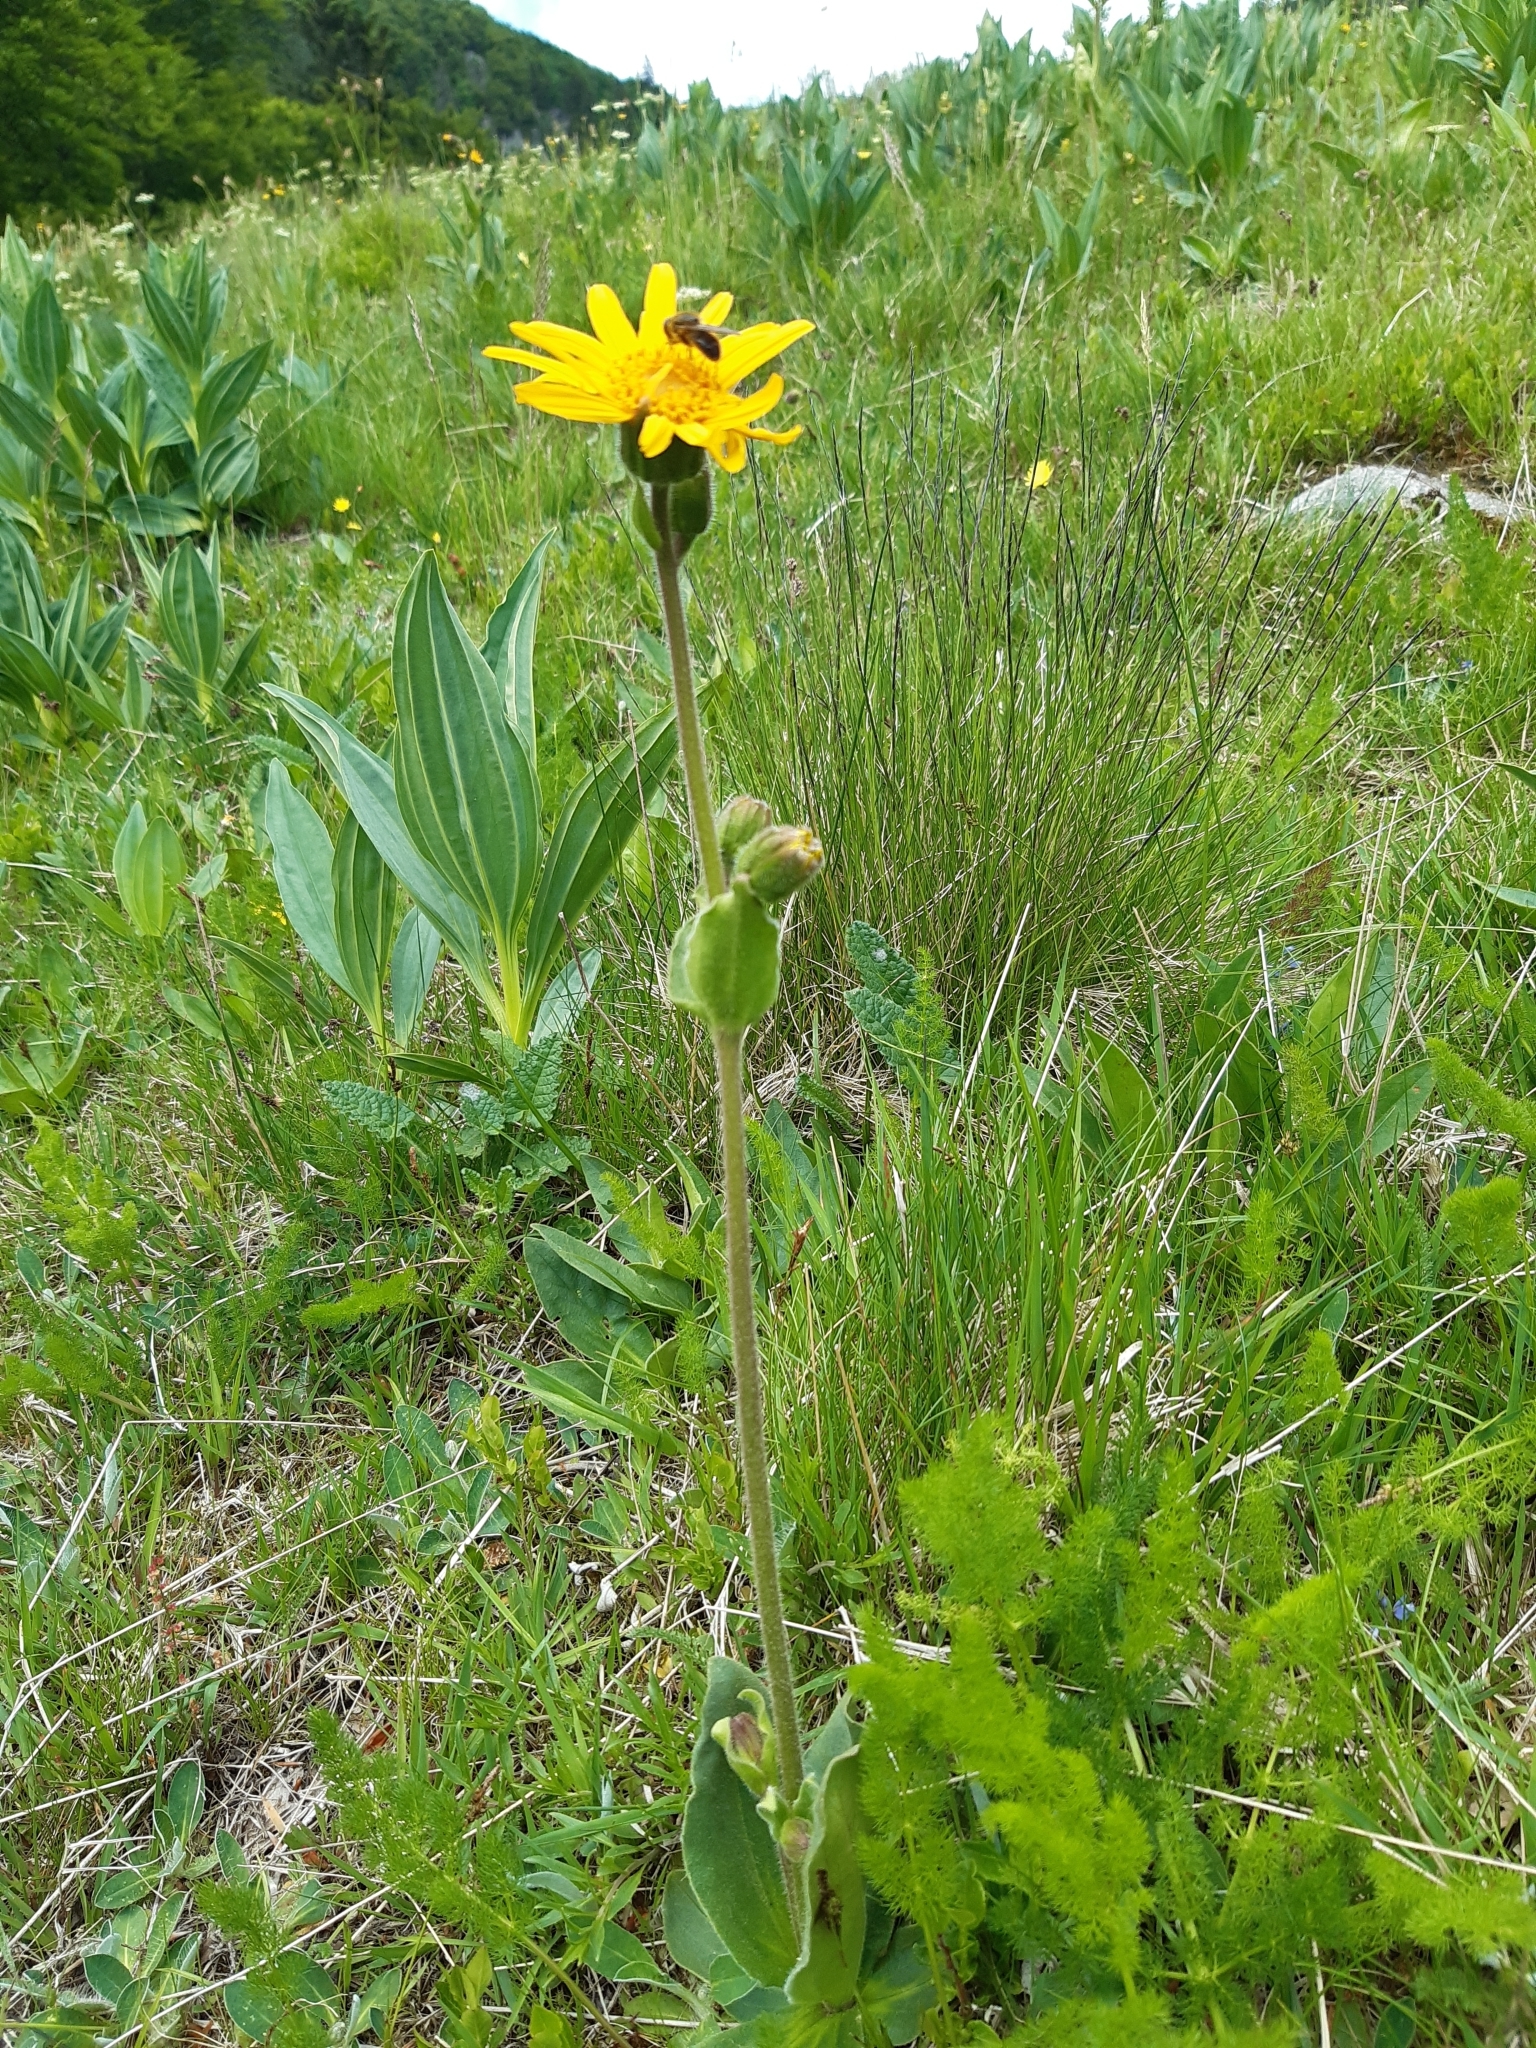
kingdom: Plantae
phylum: Tracheophyta
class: Magnoliopsida
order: Asterales
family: Asteraceae
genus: Arnica
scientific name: Arnica montana
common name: Leopard's bane
